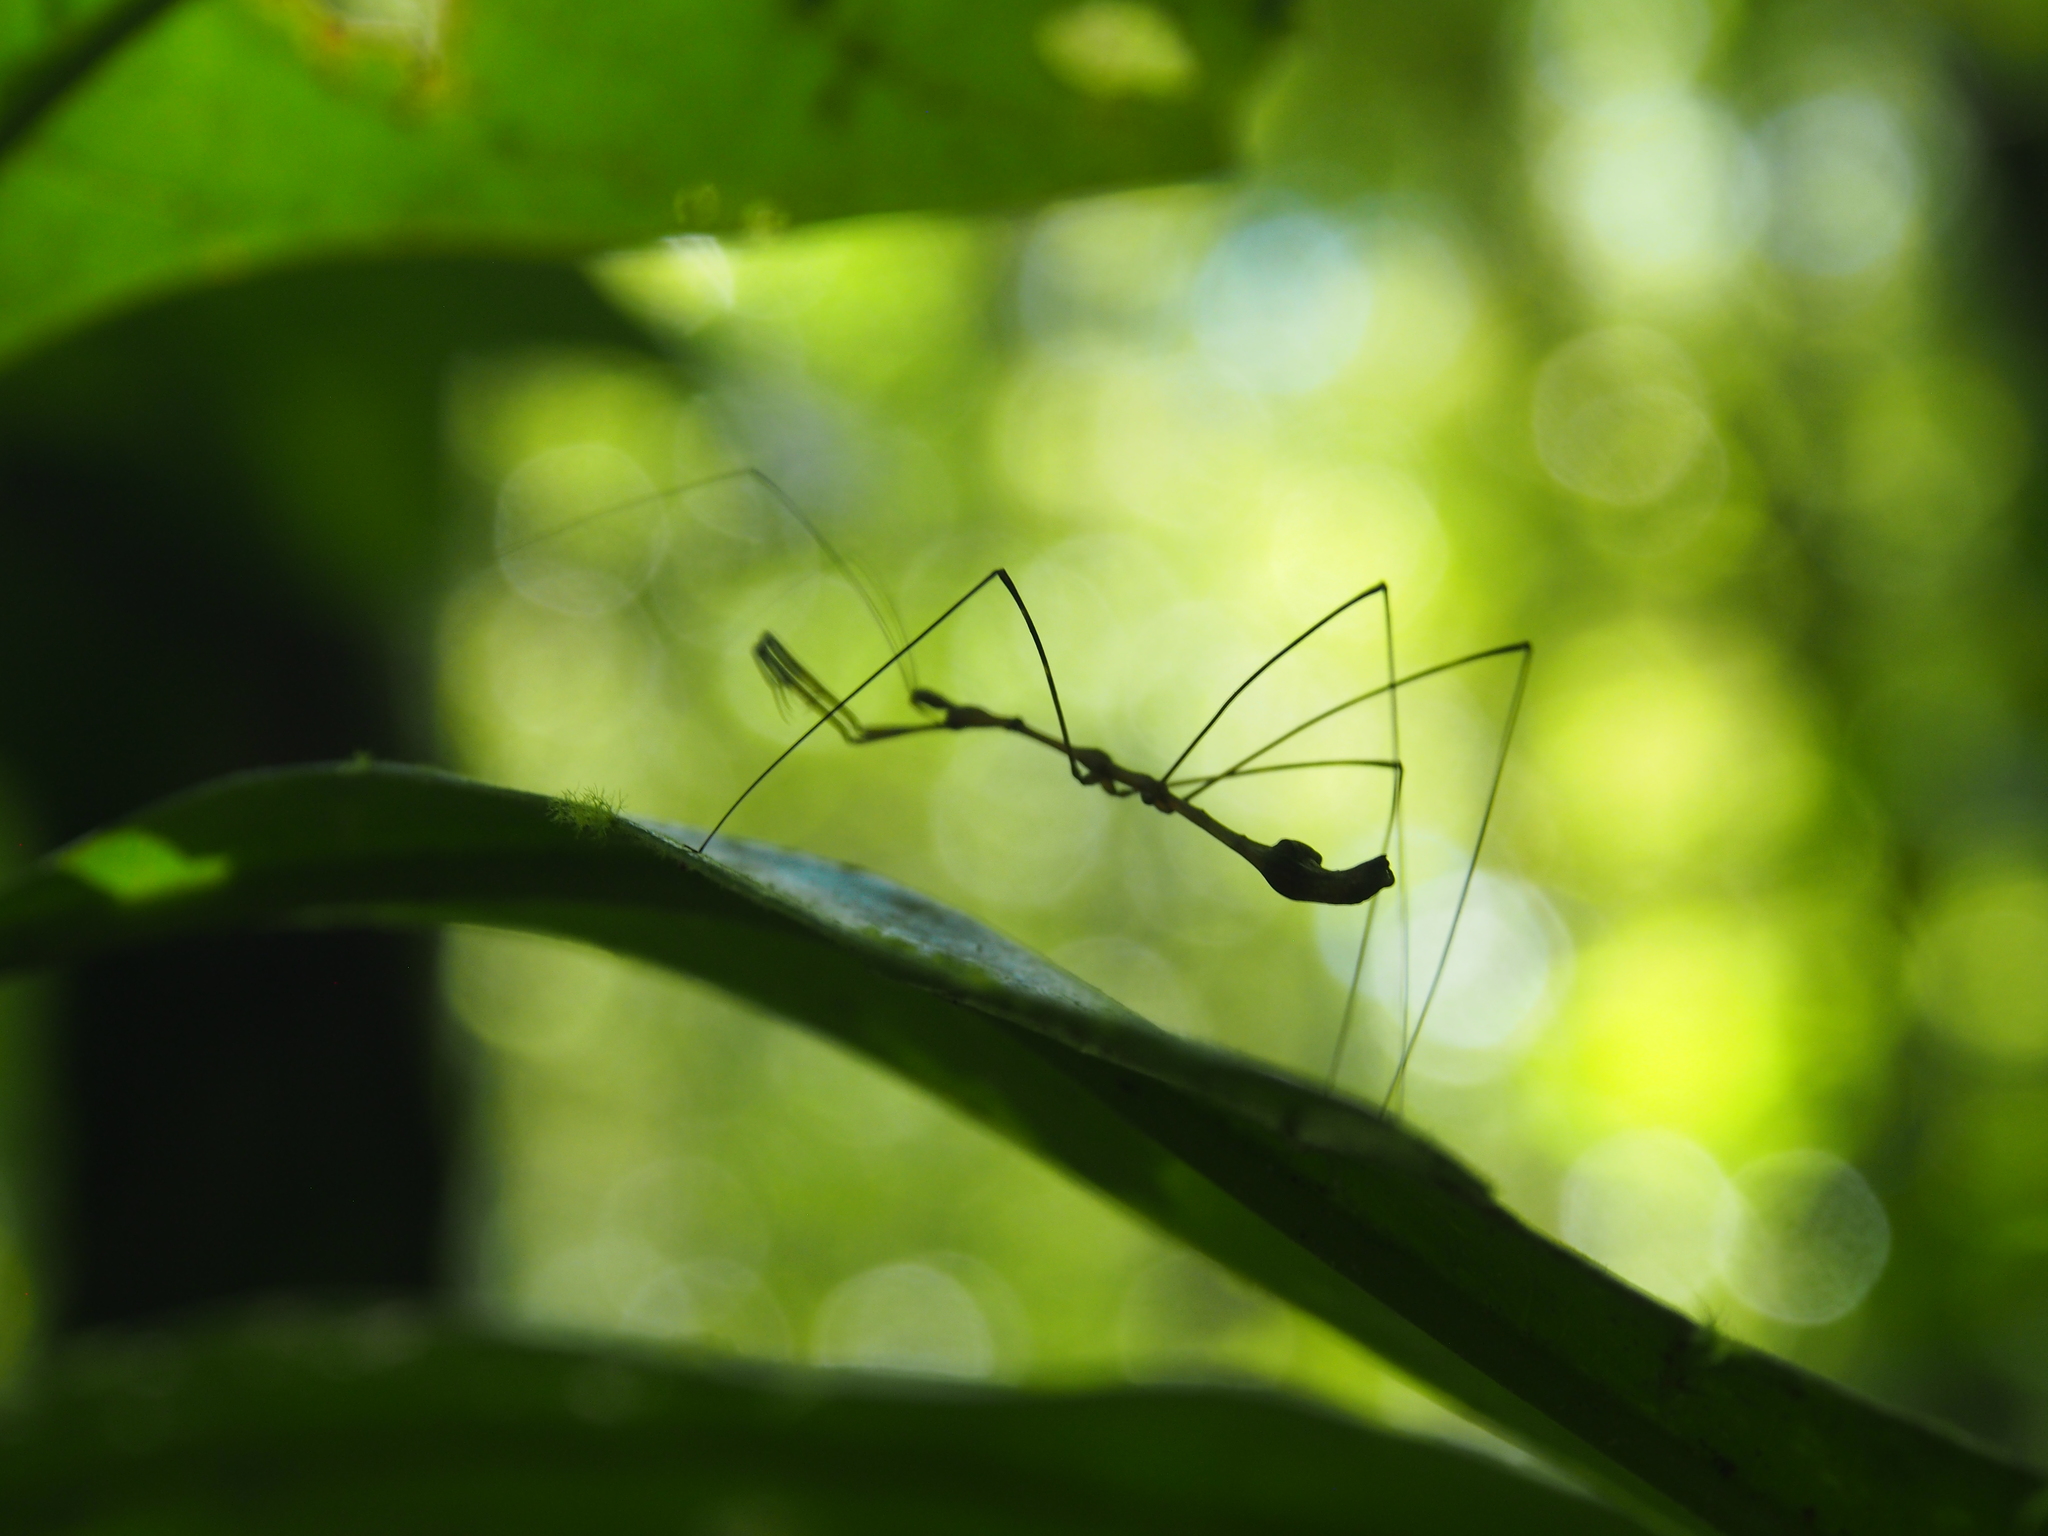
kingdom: Animalia
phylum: Arthropoda
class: Insecta
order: Hemiptera
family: Reduviidae
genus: Ghilianella
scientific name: Ghilianella strigata
